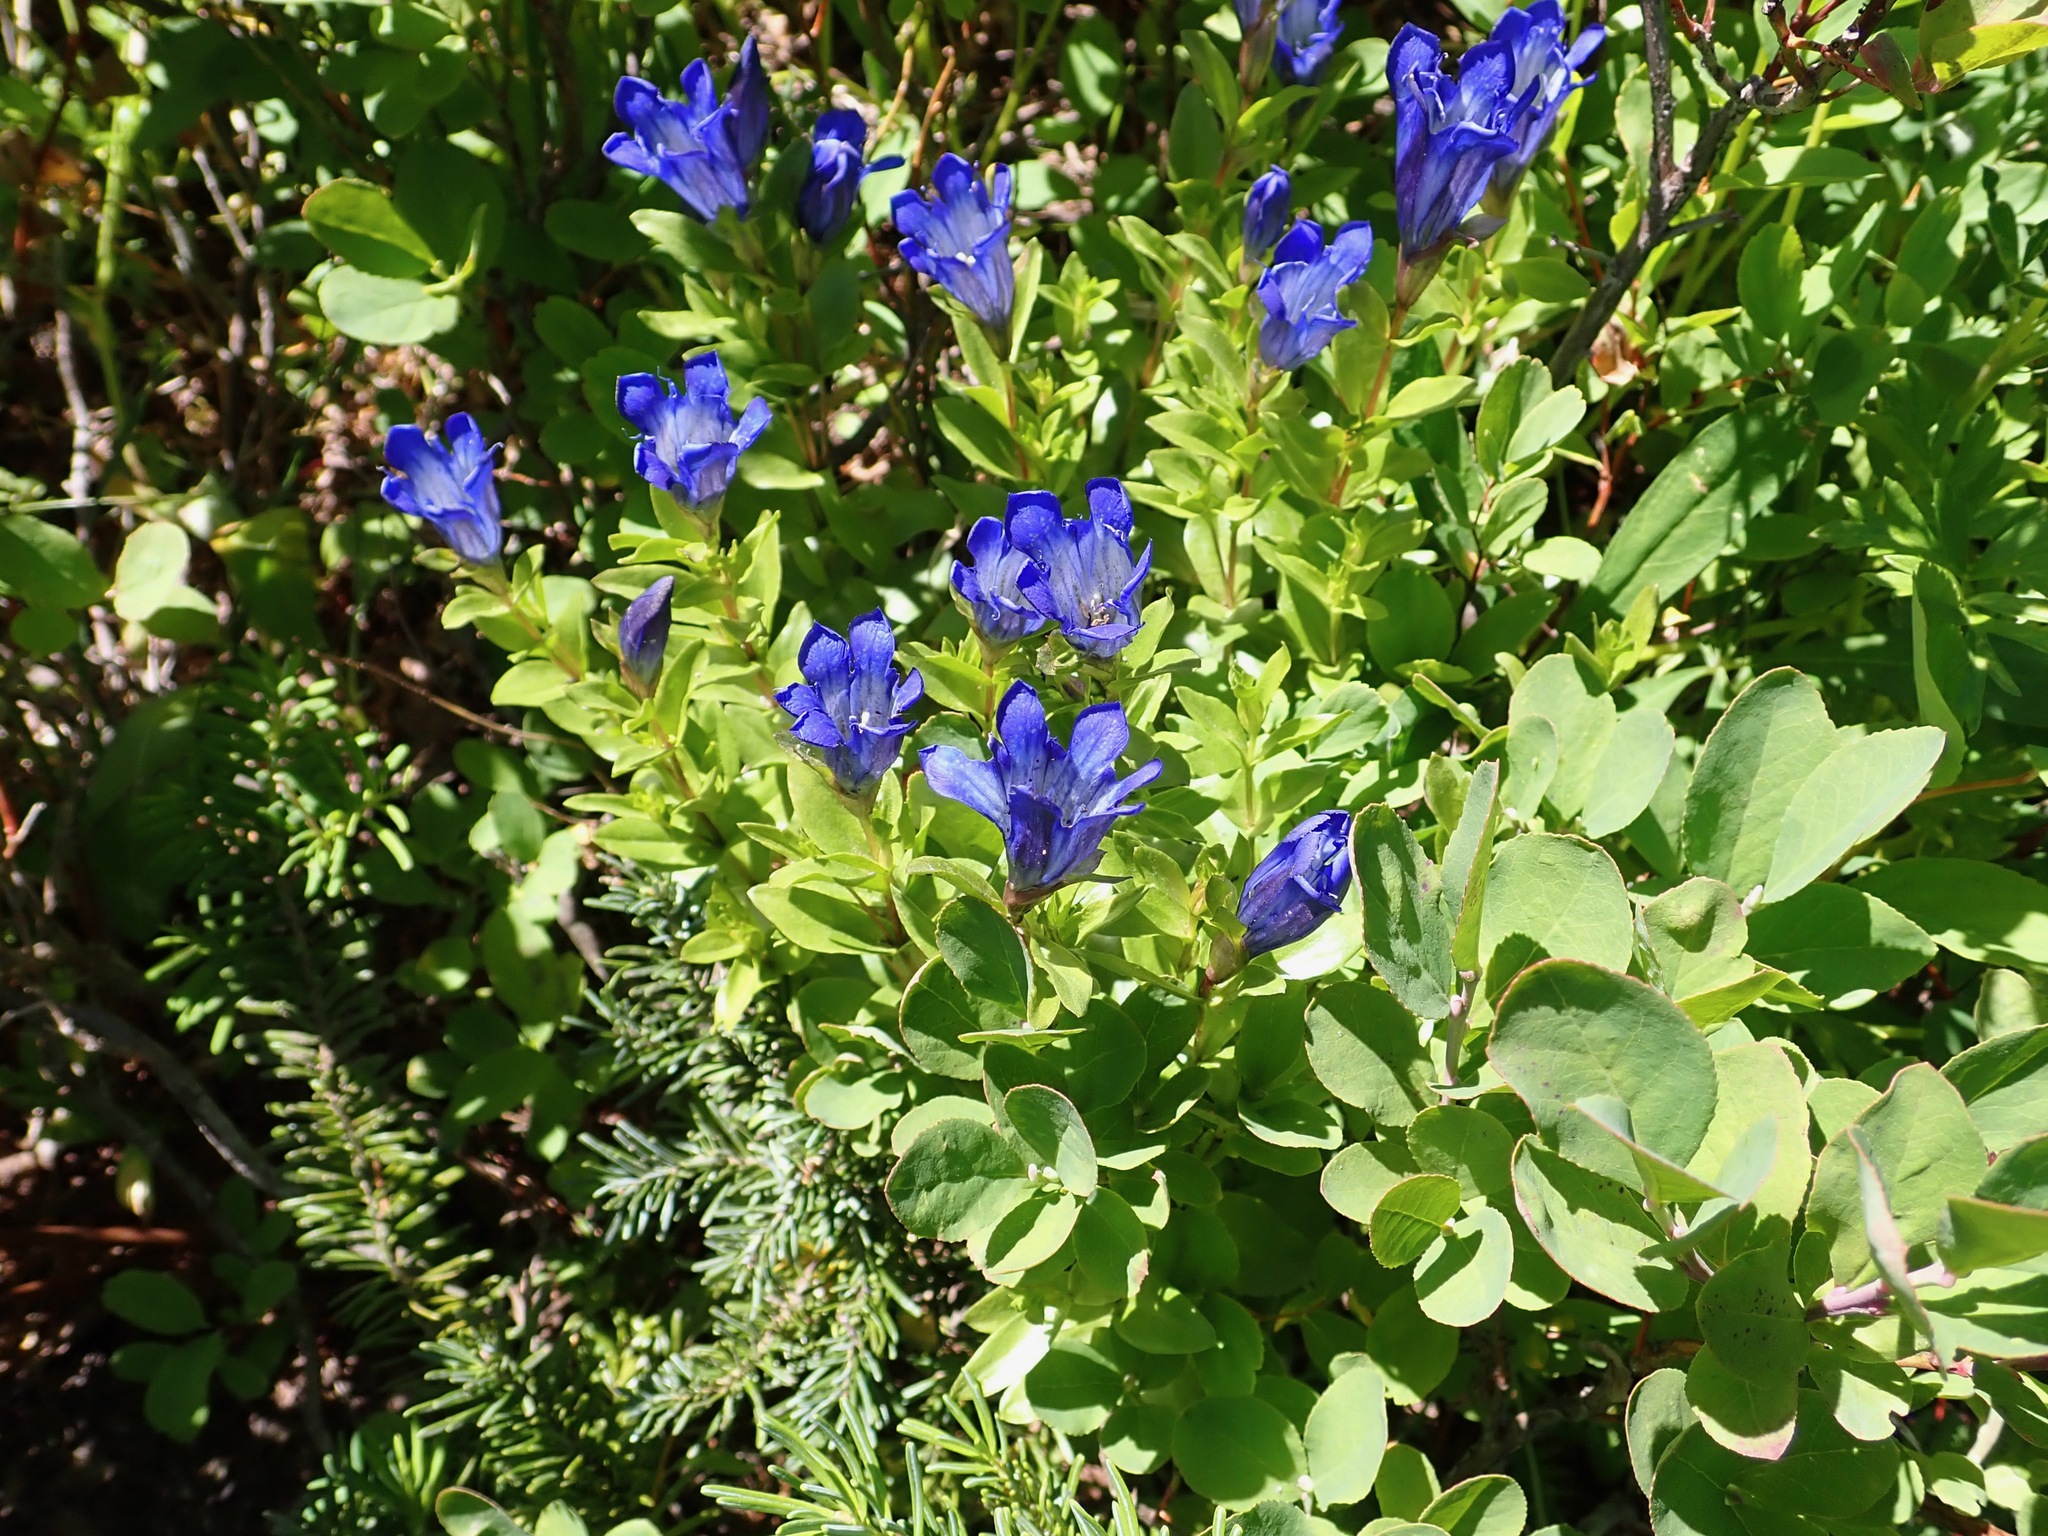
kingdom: Plantae
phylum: Tracheophyta
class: Magnoliopsida
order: Gentianales
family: Gentianaceae
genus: Gentiana
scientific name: Gentiana calycosa
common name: Rainier pleated gentian
